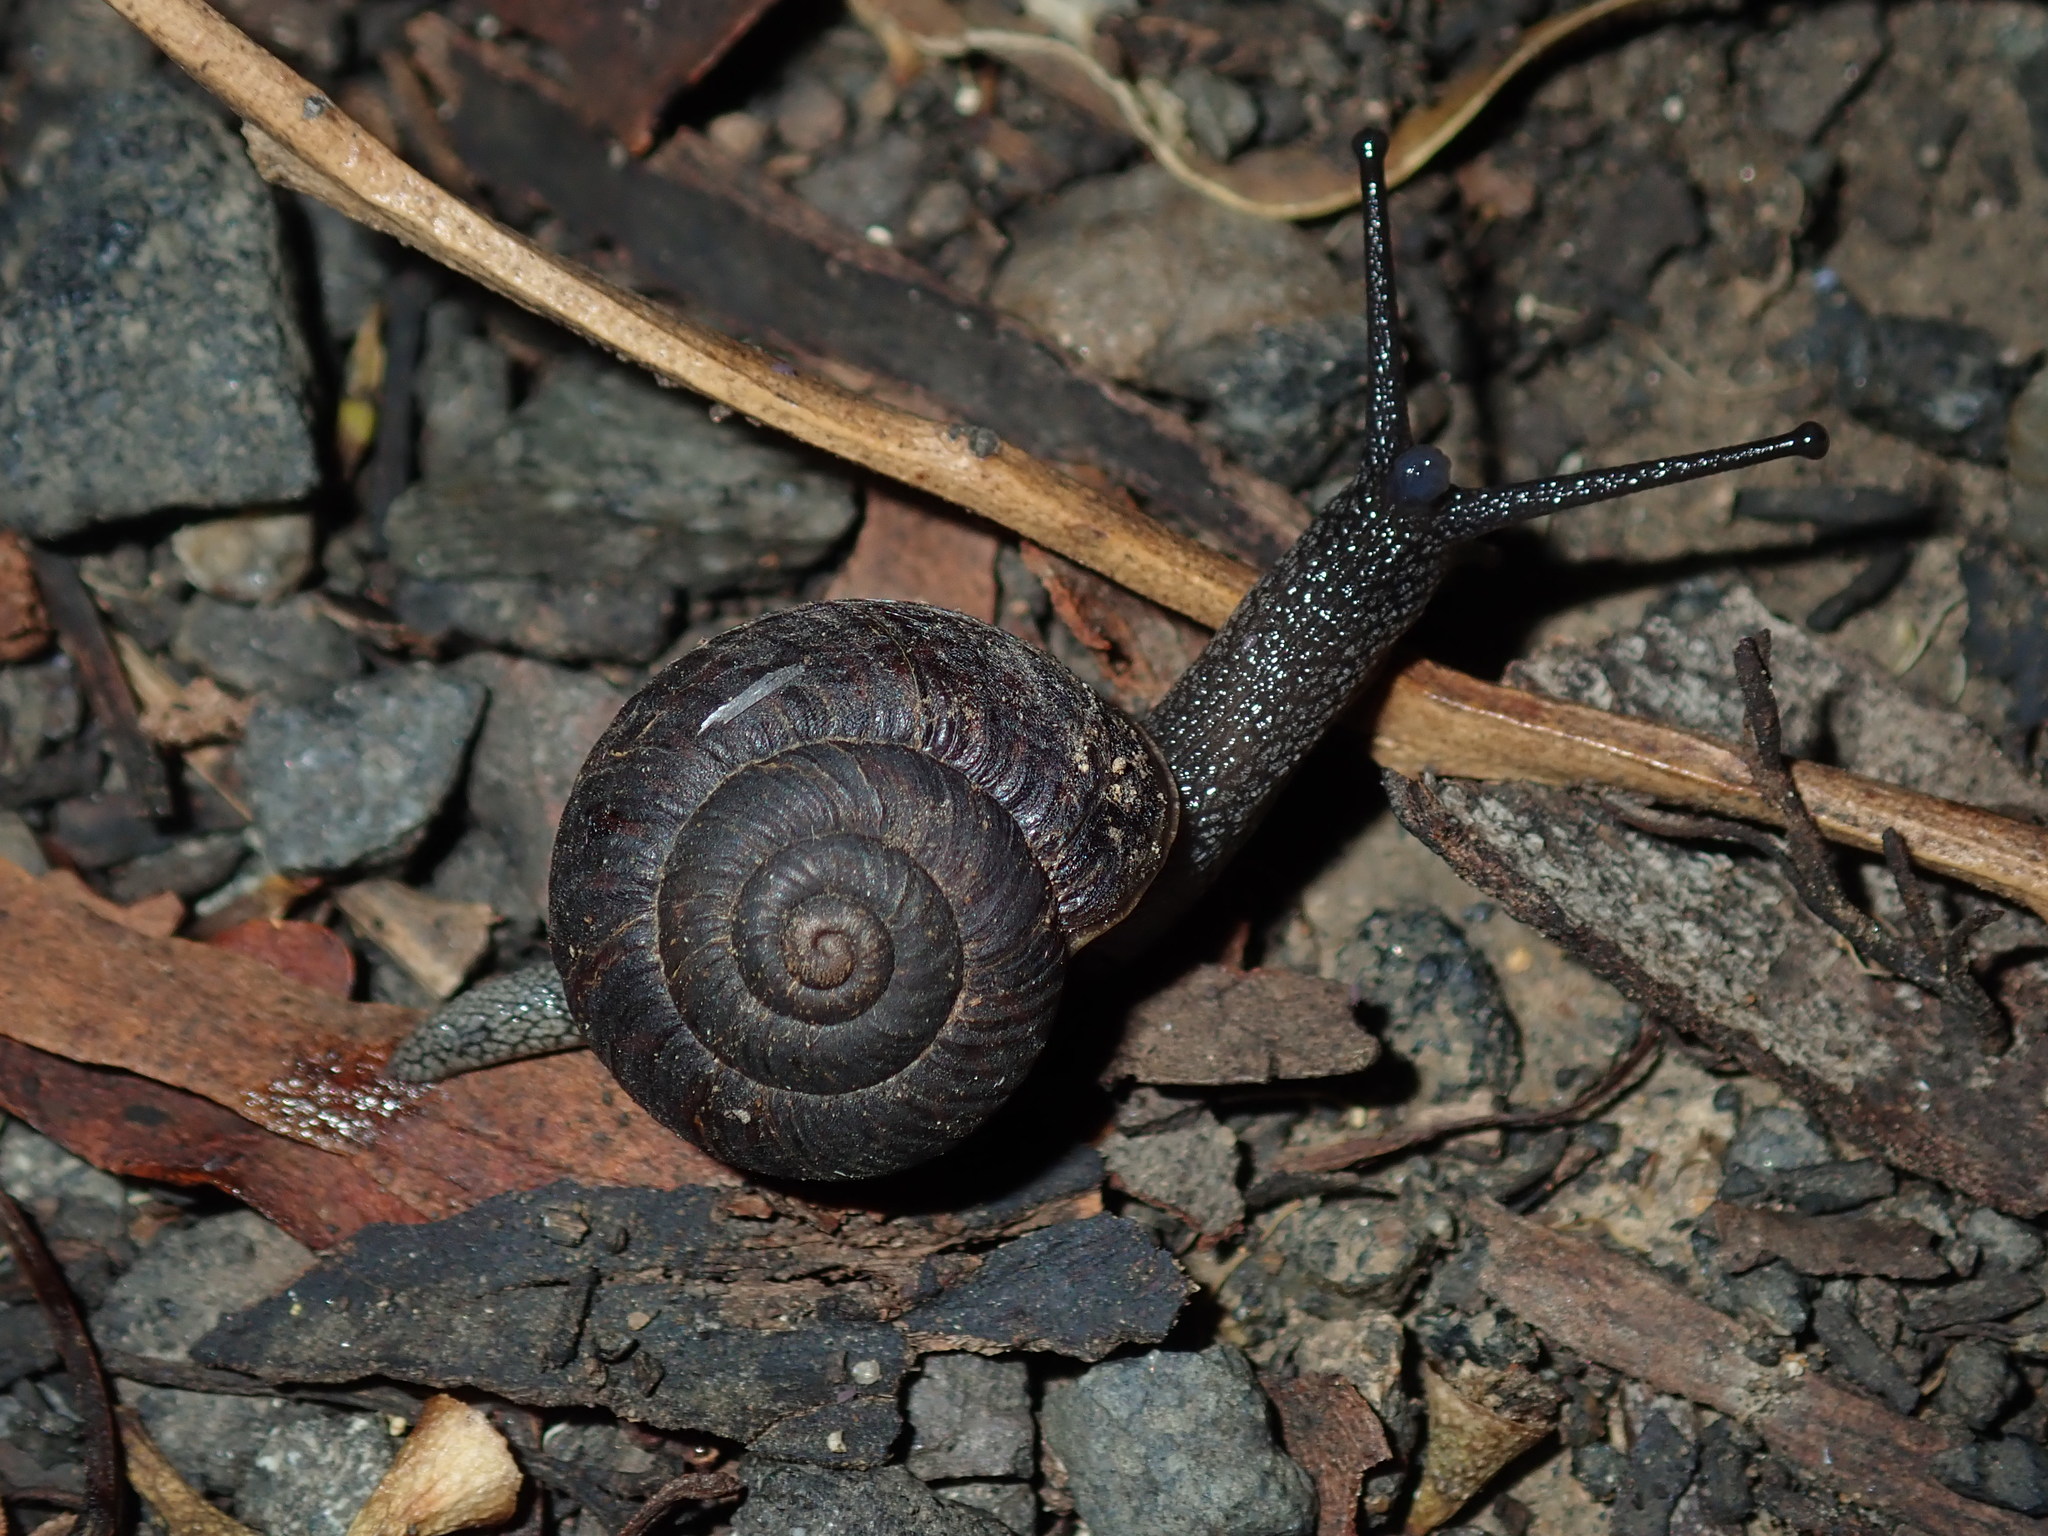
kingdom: Animalia
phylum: Mollusca
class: Gastropoda
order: Stylommatophora
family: Camaenidae
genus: Sauroconcha
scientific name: Sauroconcha sheai
